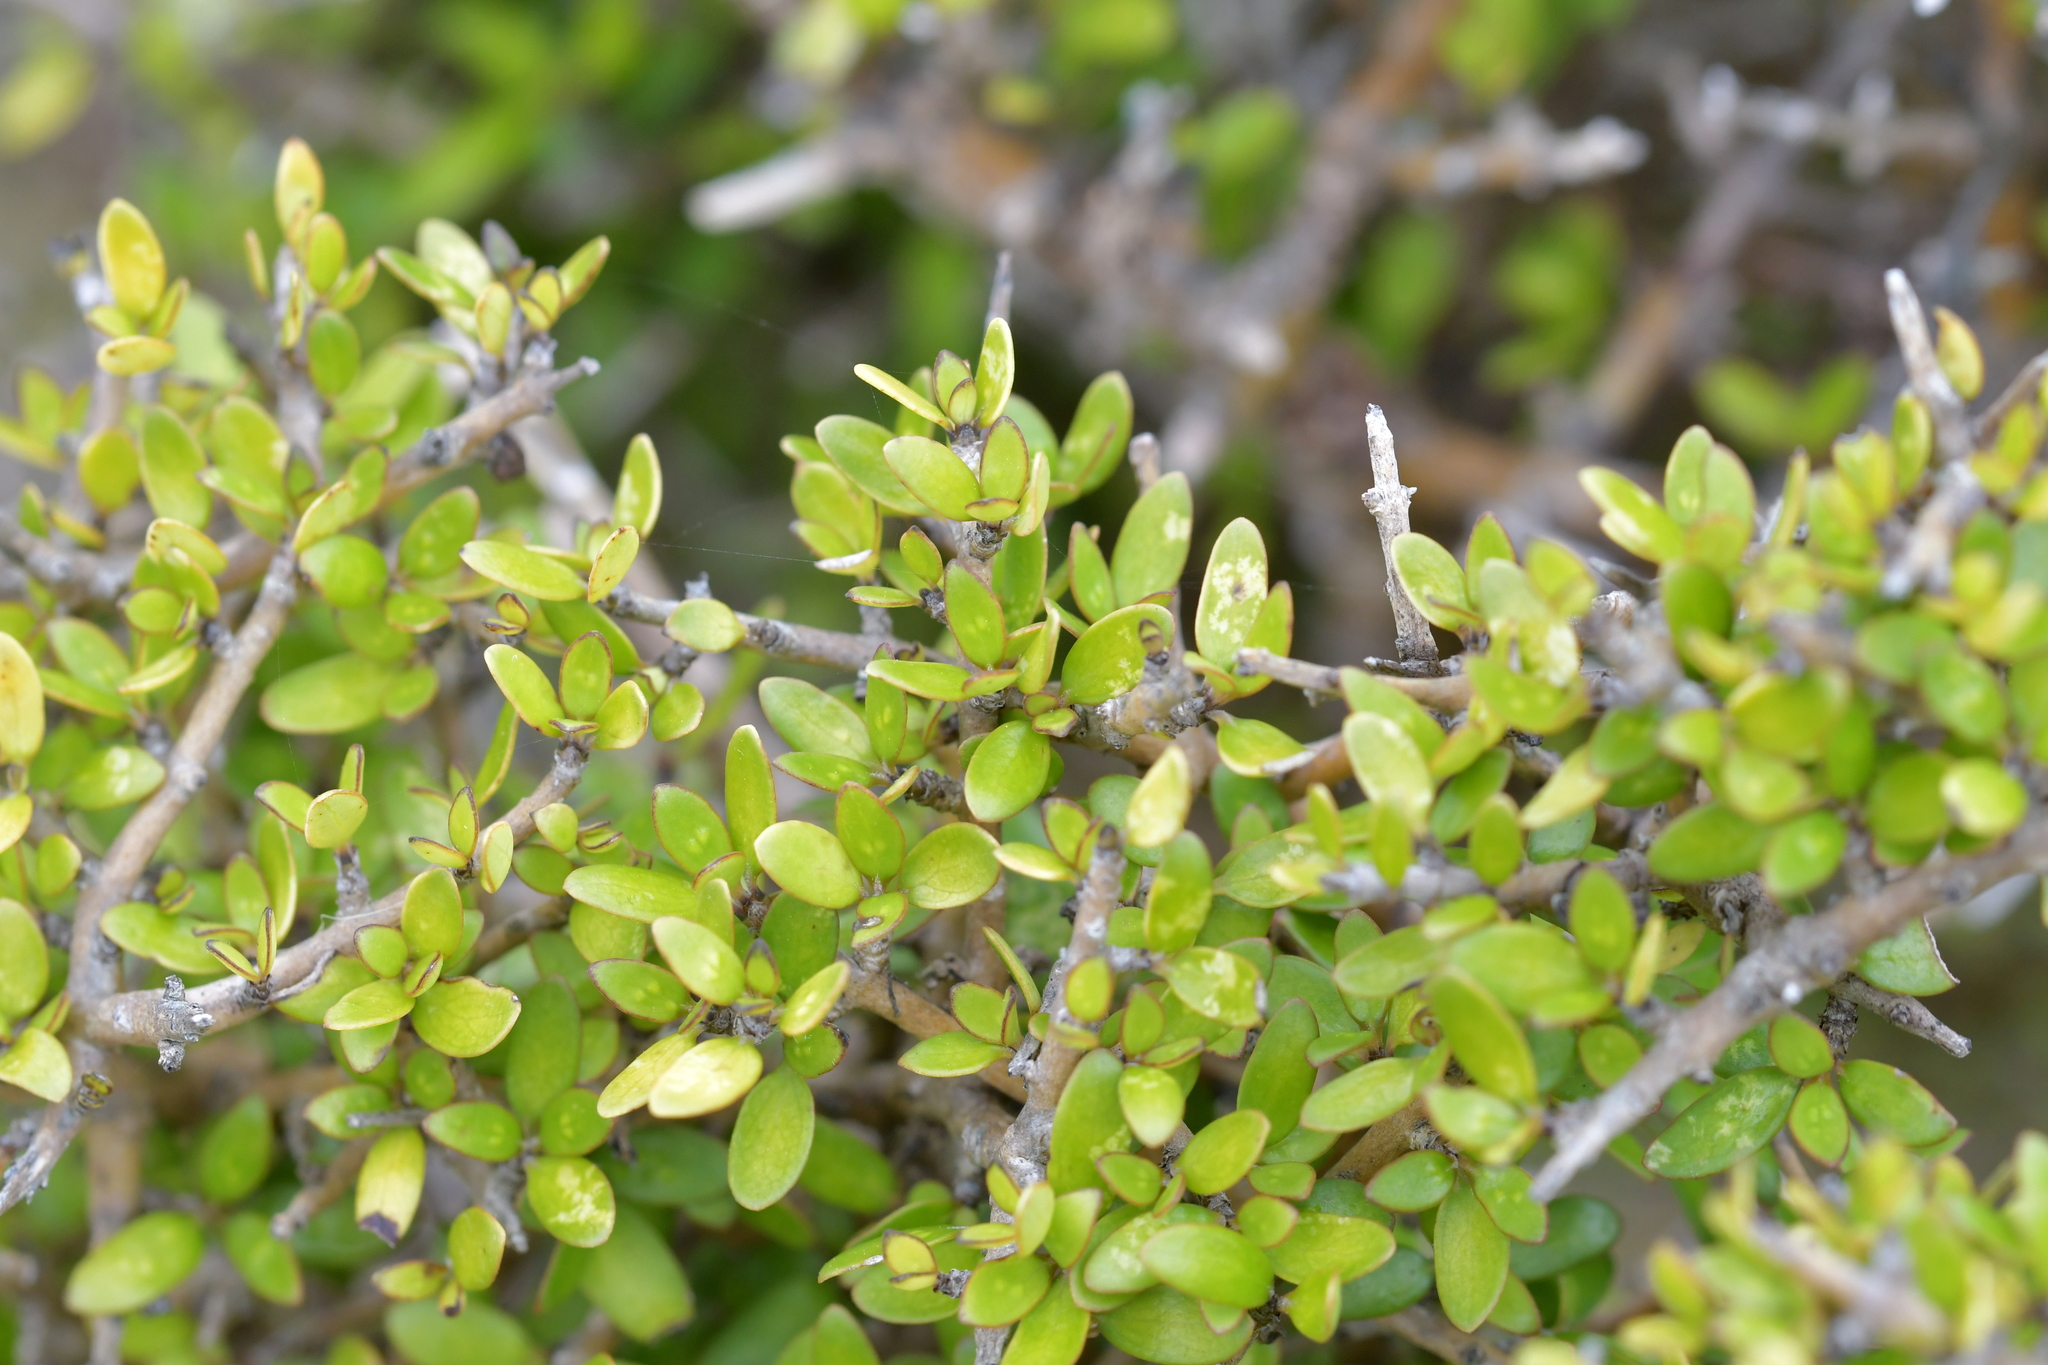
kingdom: Plantae
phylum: Tracheophyta
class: Magnoliopsida
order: Gentianales
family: Rubiaceae
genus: Coprosma
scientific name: Coprosma propinqua
